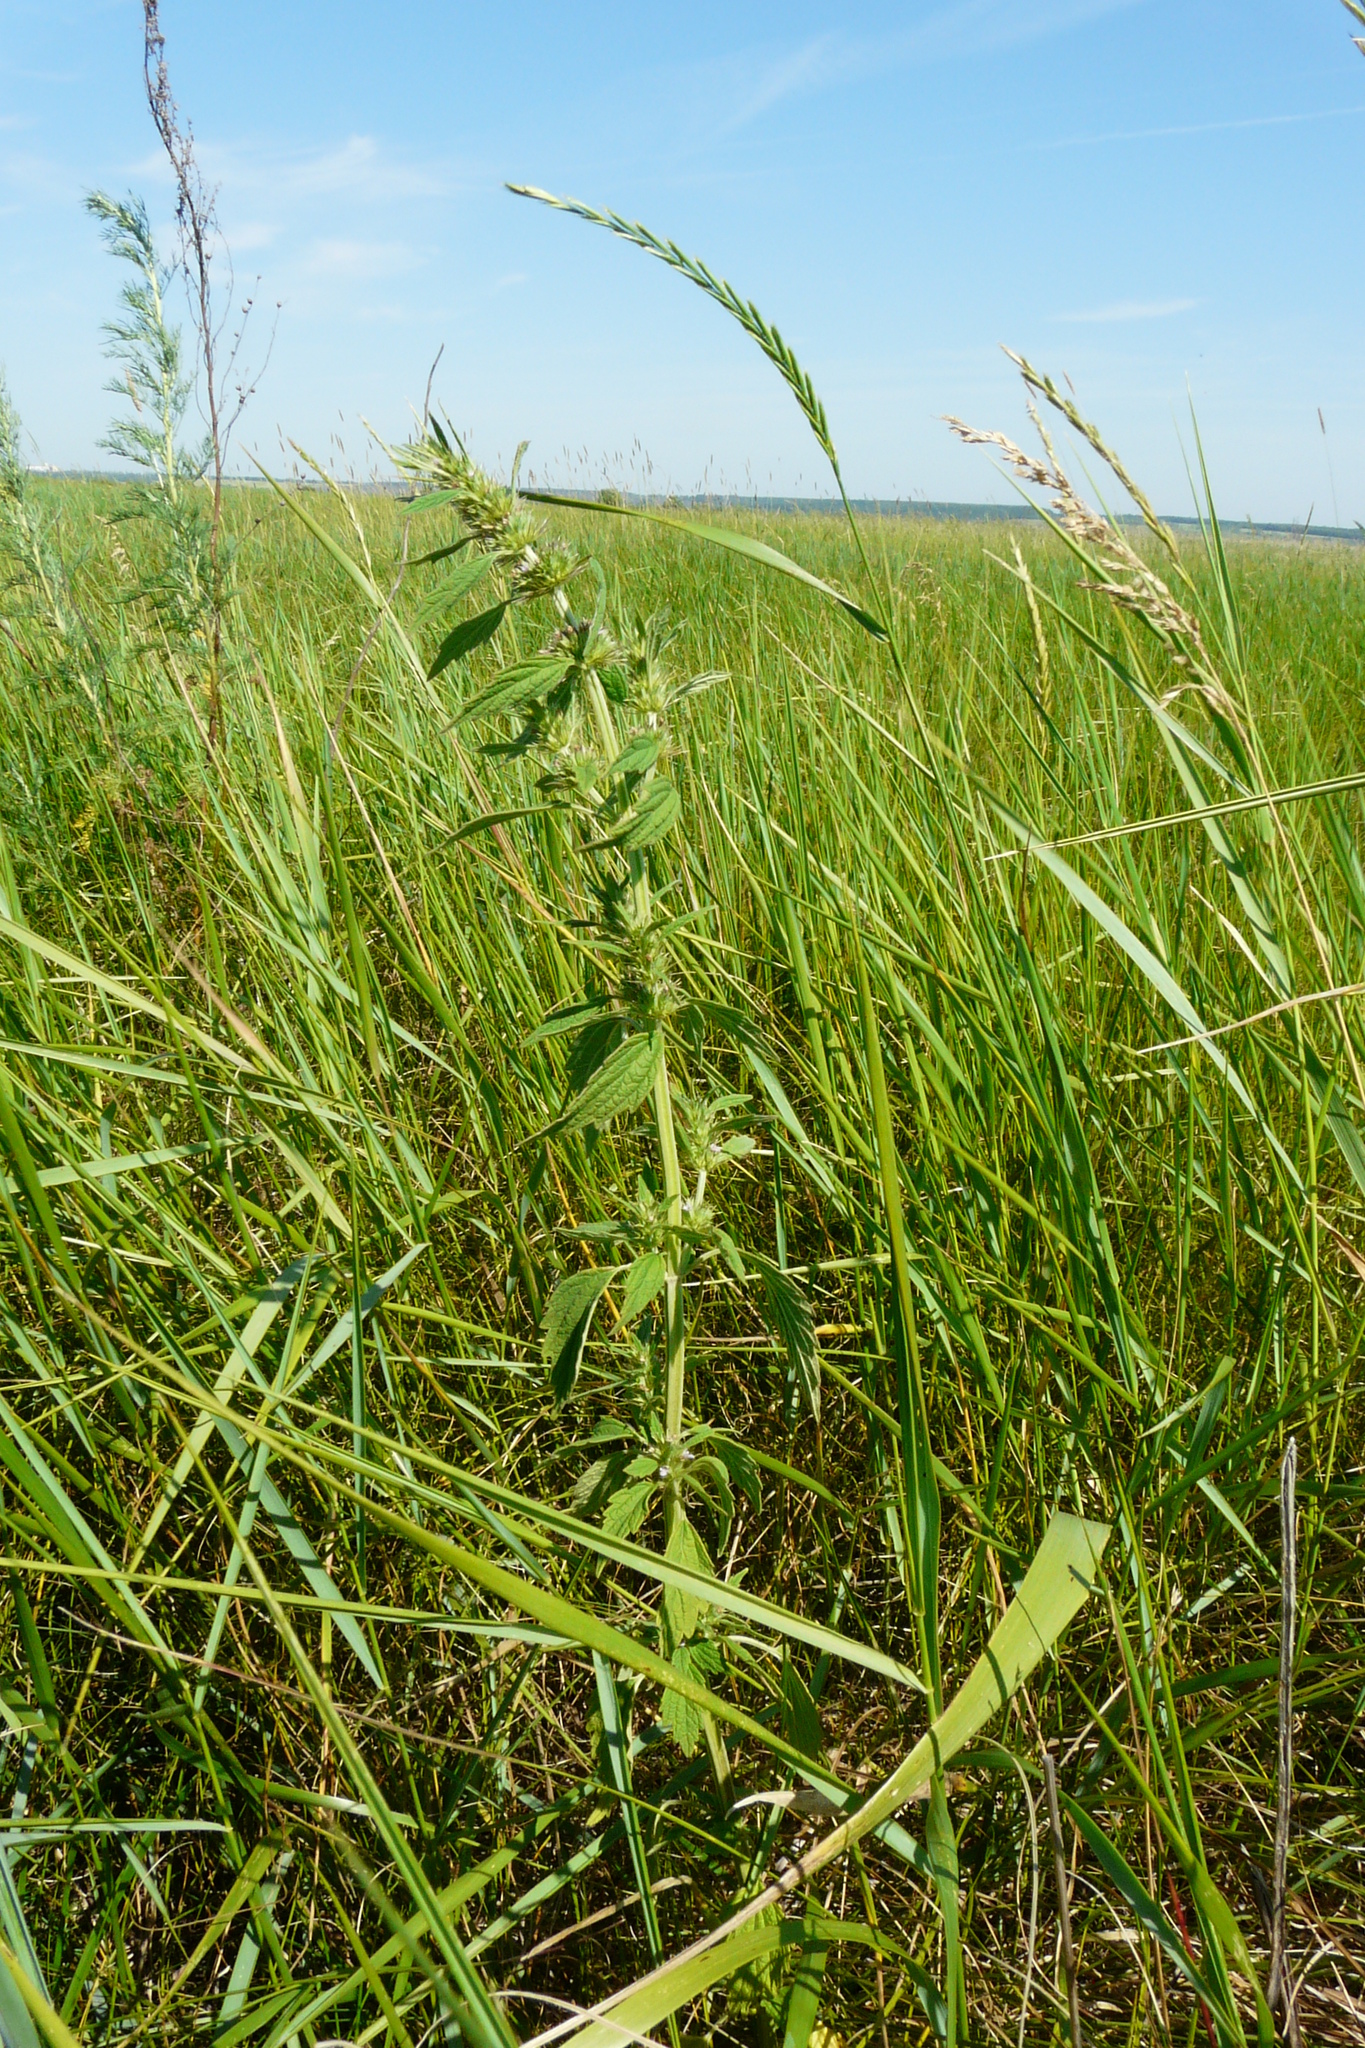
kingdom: Plantae
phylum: Tracheophyta
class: Magnoliopsida
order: Lamiales
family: Lamiaceae
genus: Chaiturus
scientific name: Chaiturus marrubiastrum
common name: Lion's tail
